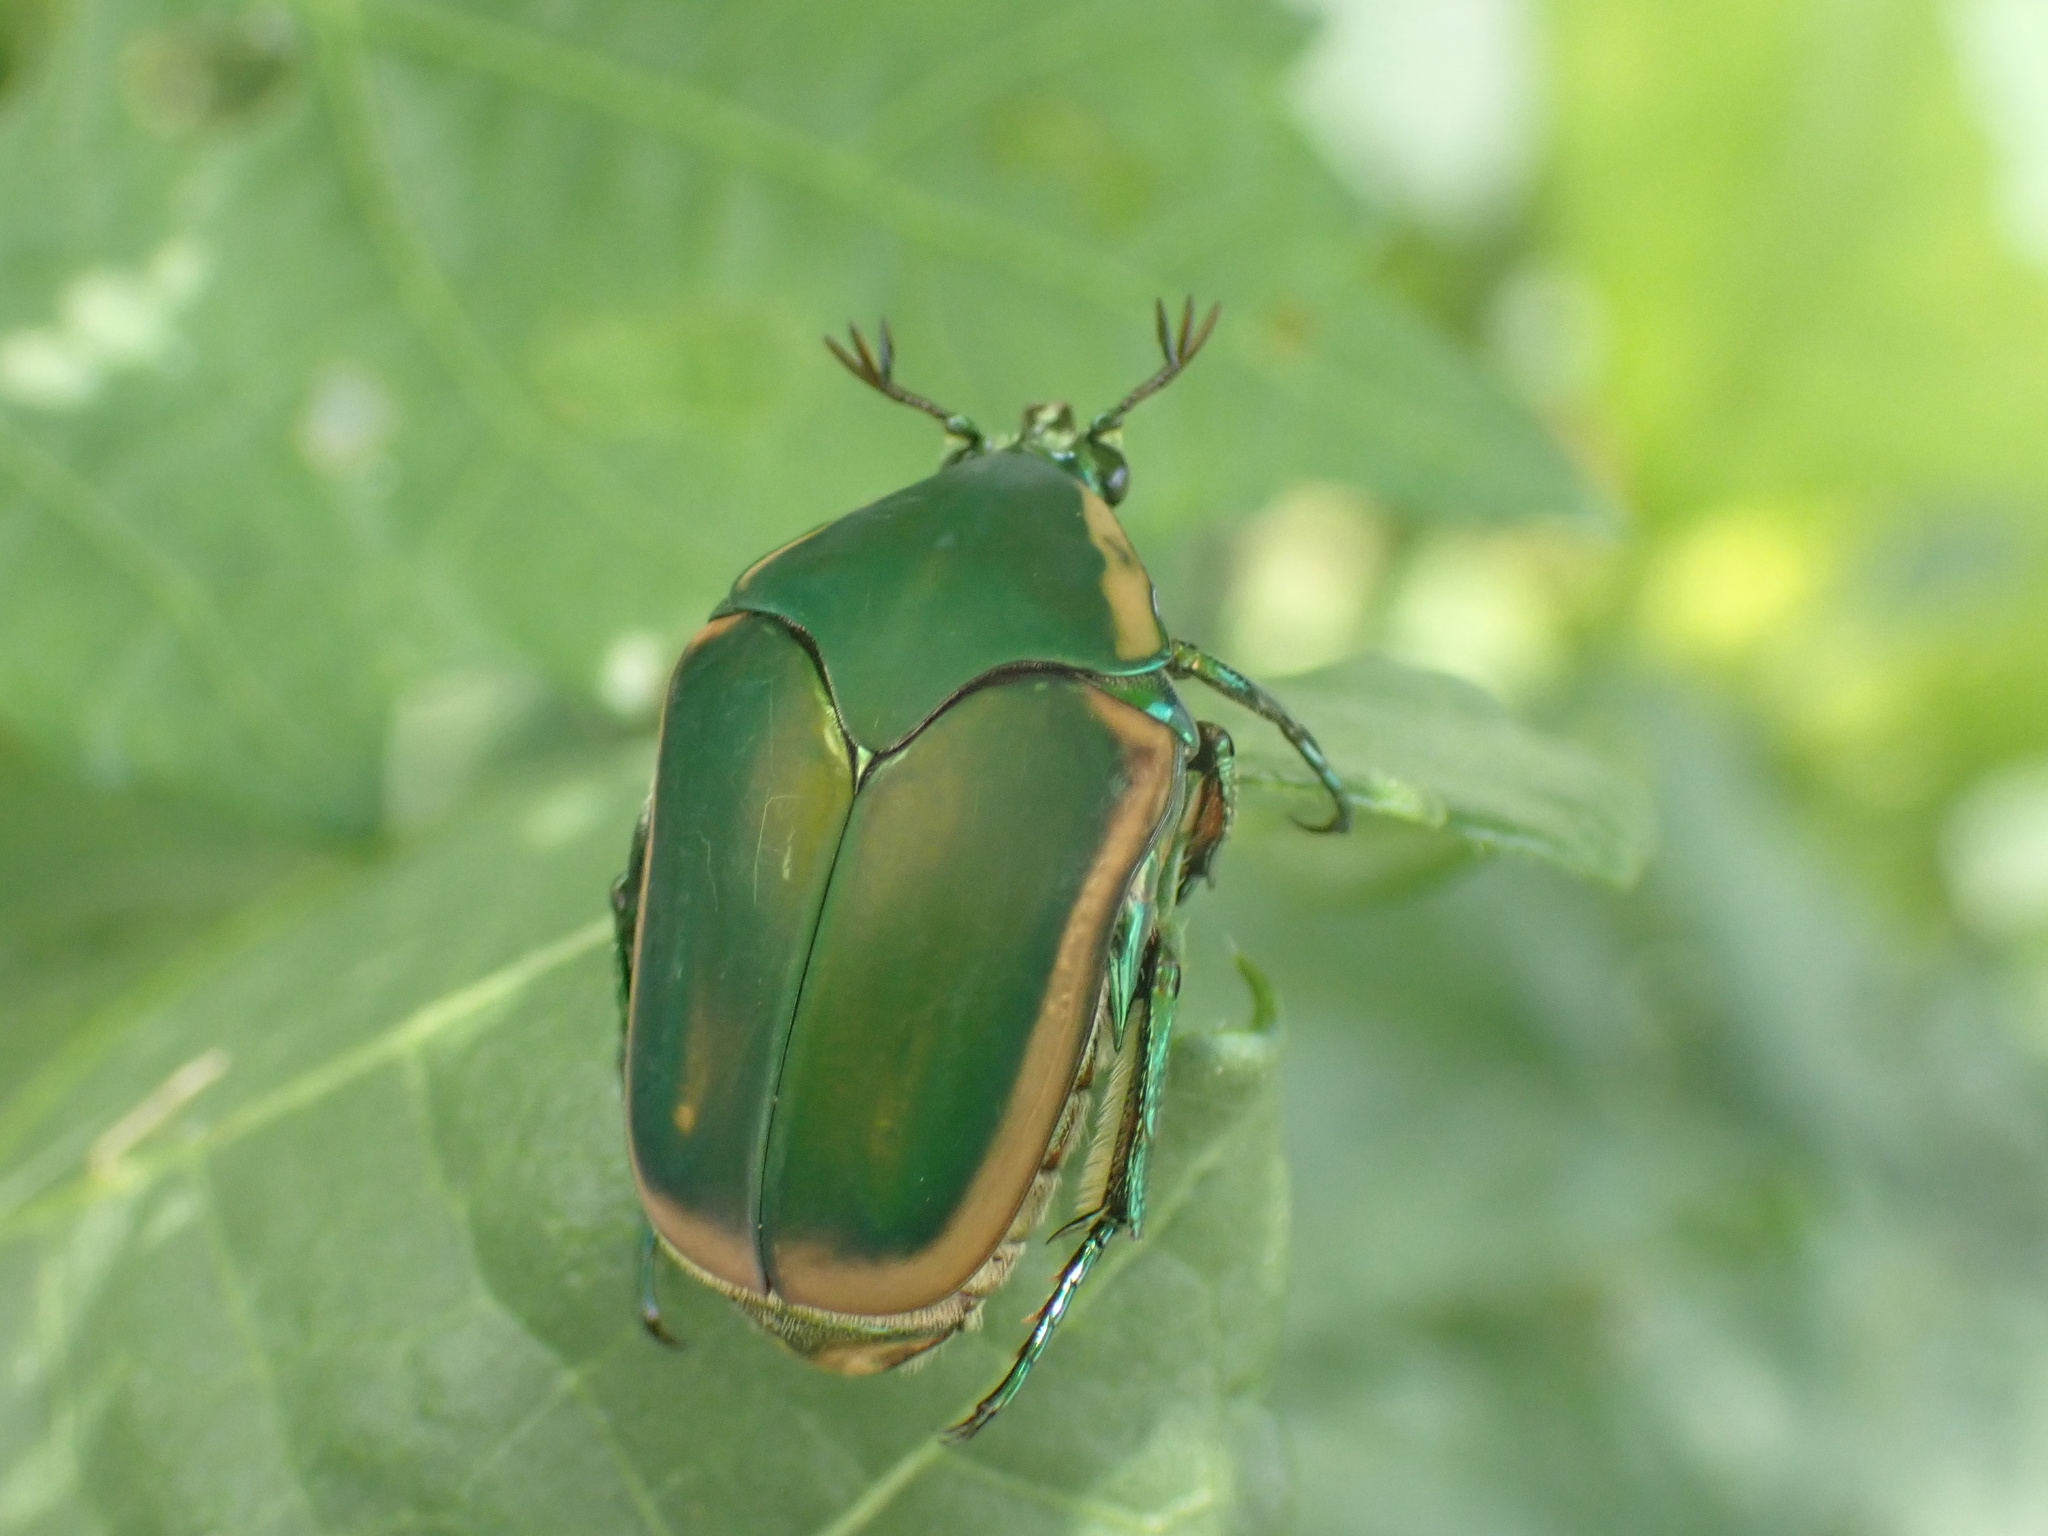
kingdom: Animalia
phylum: Arthropoda
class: Insecta
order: Coleoptera
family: Scarabaeidae
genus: Cotinis
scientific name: Cotinis nitida
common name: Common green june beetle
